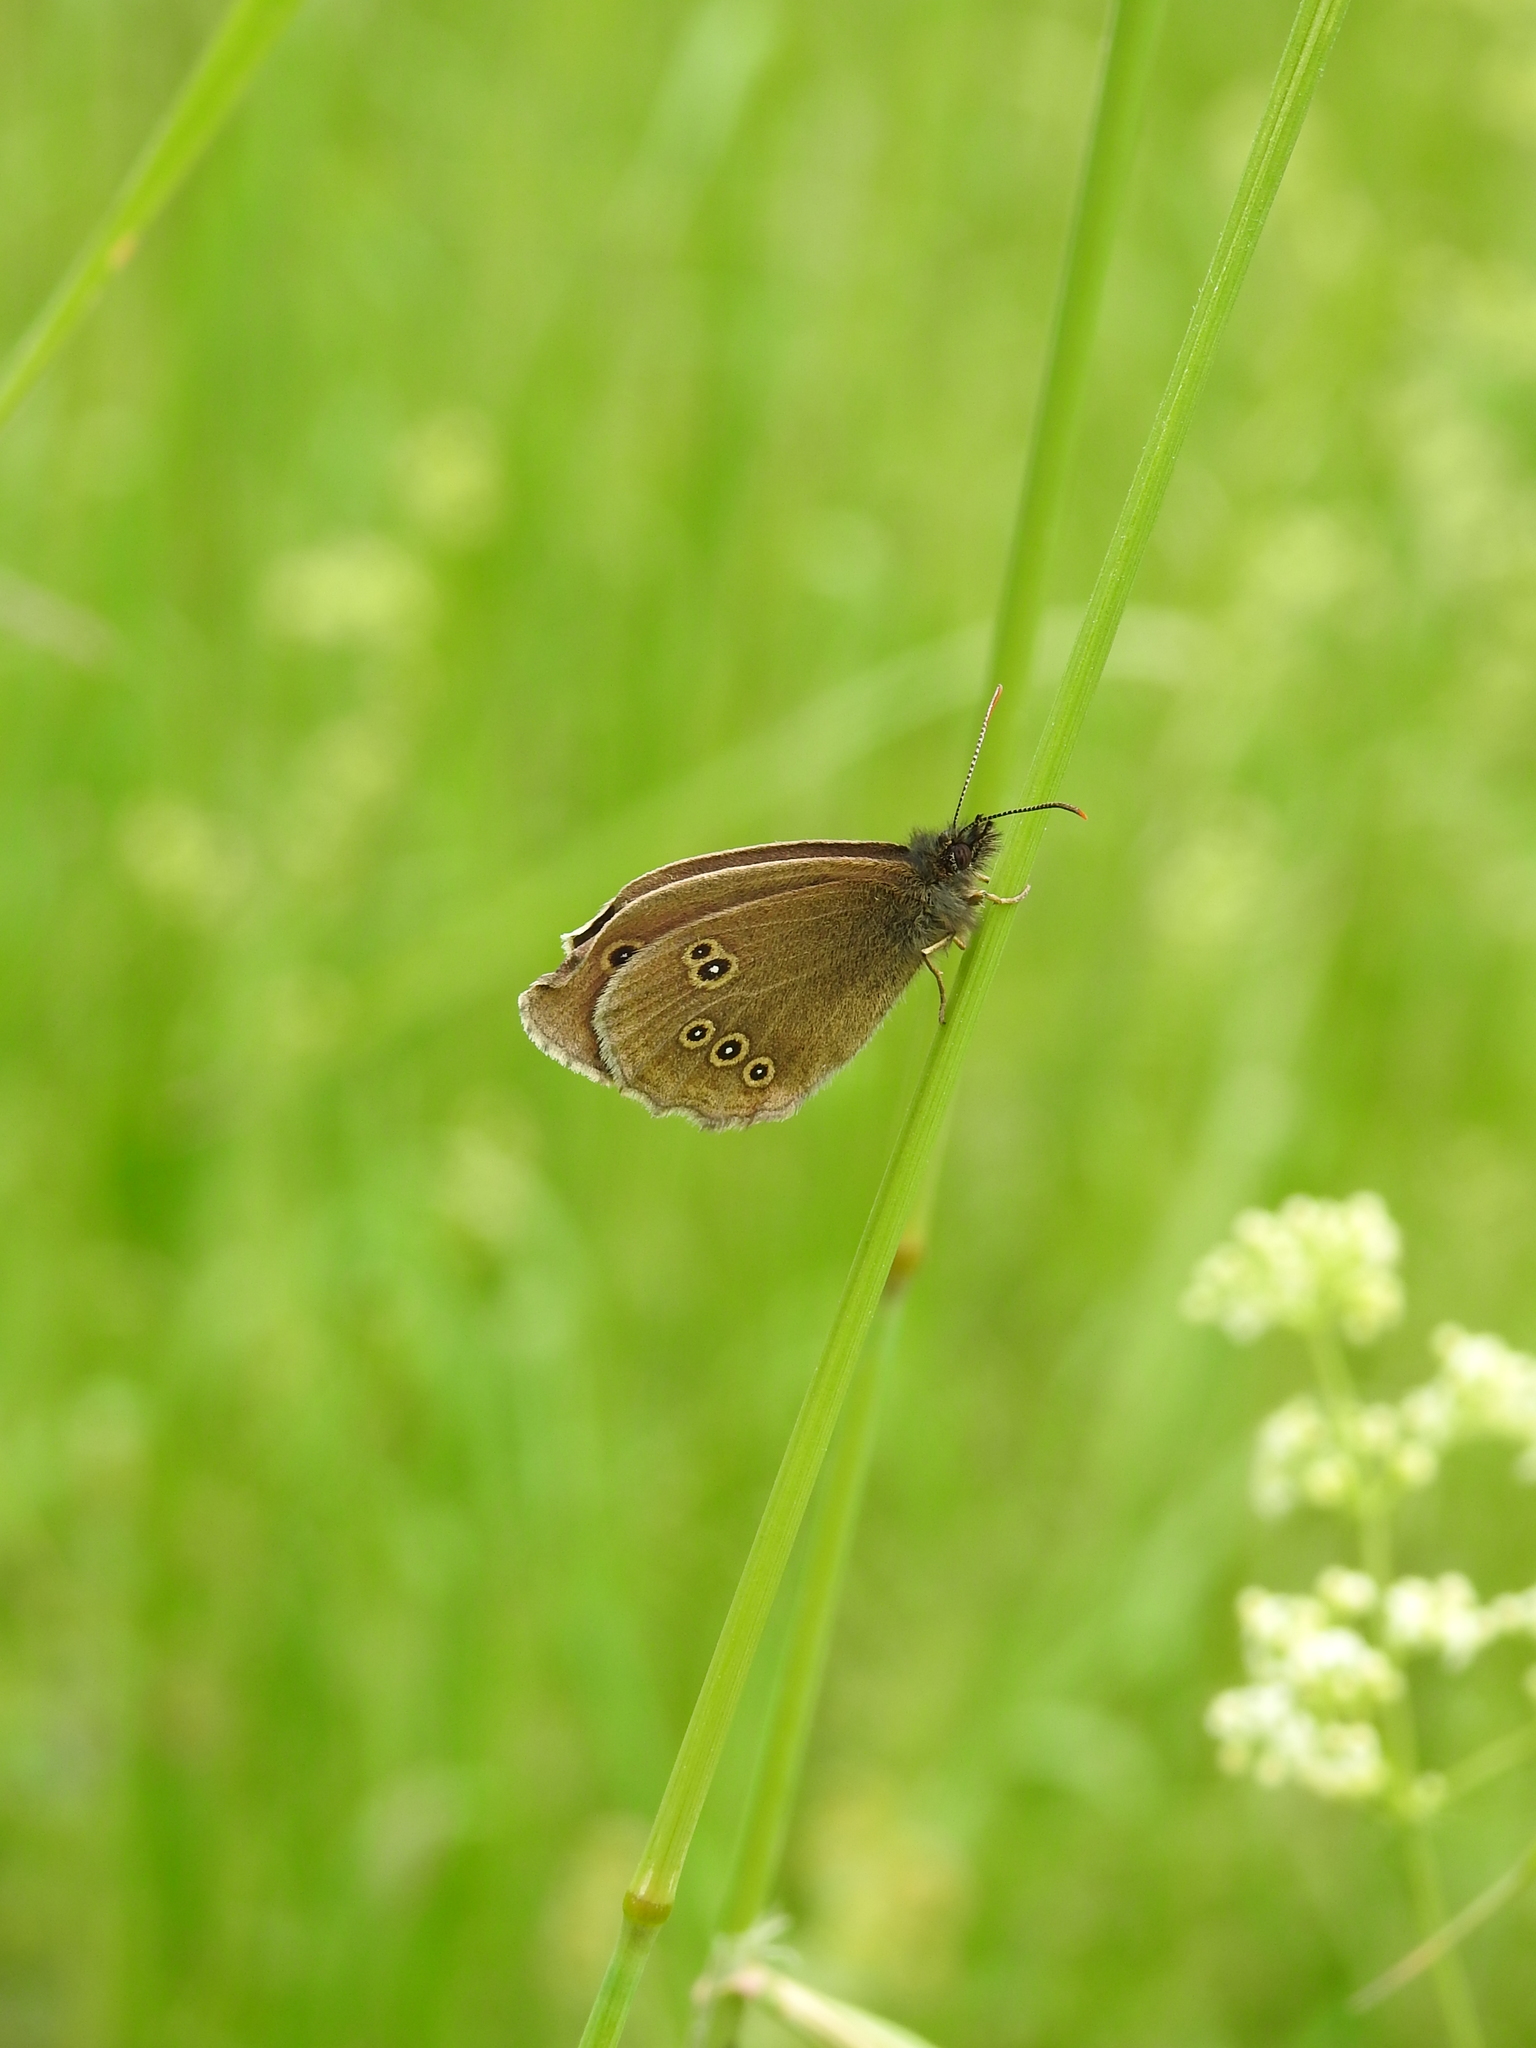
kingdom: Animalia
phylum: Arthropoda
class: Insecta
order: Lepidoptera
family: Nymphalidae
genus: Aphantopus
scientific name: Aphantopus hyperantus
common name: Ringlet
